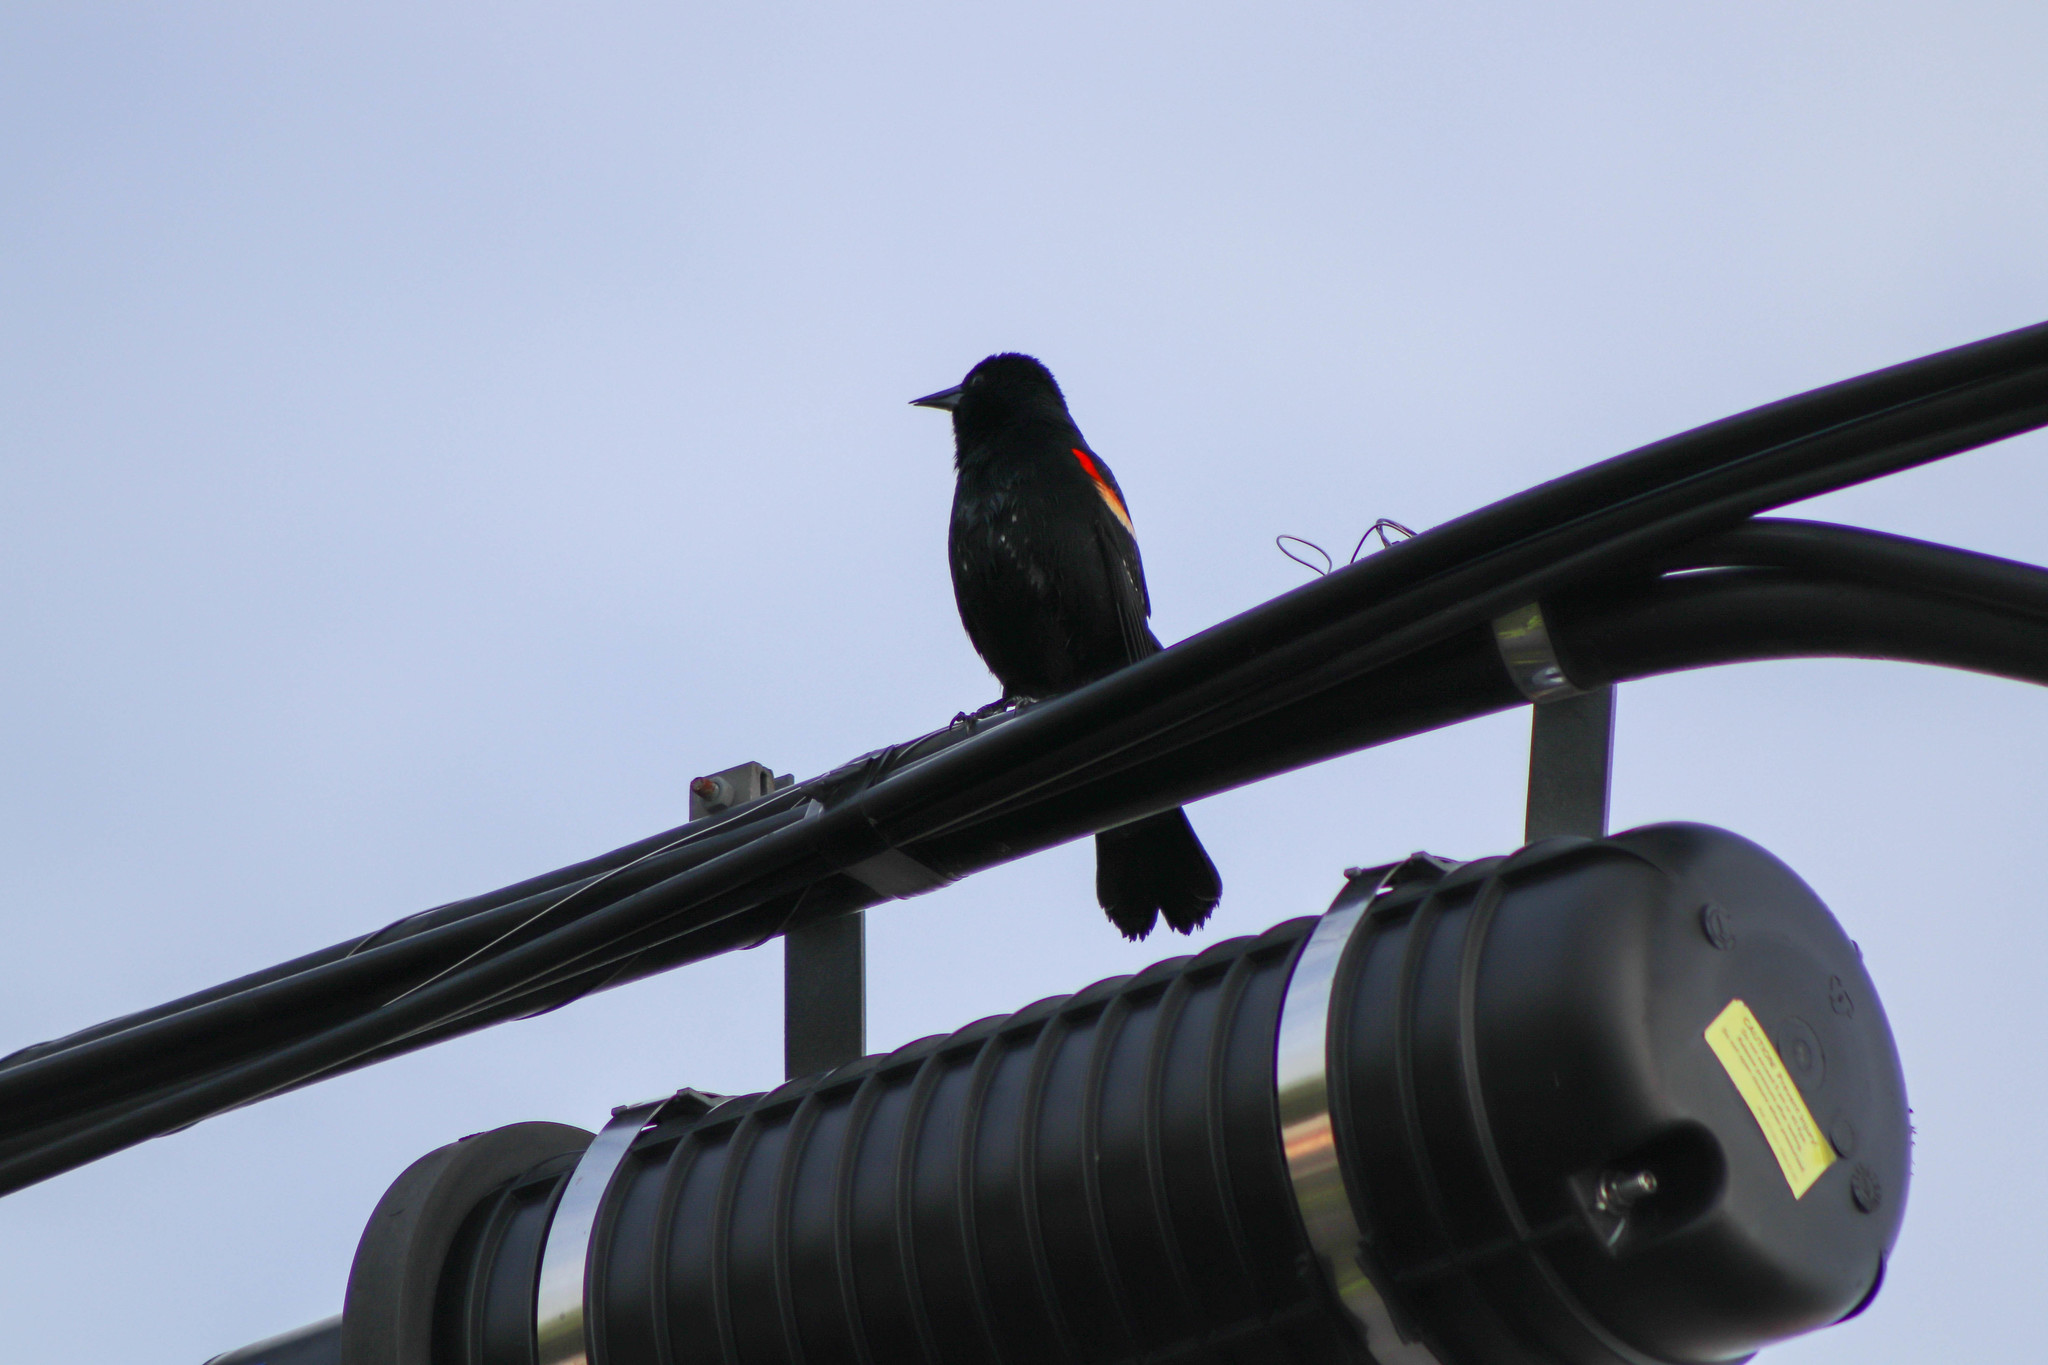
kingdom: Animalia
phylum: Chordata
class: Aves
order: Passeriformes
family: Icteridae
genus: Agelaius
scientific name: Agelaius phoeniceus
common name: Red-winged blackbird
